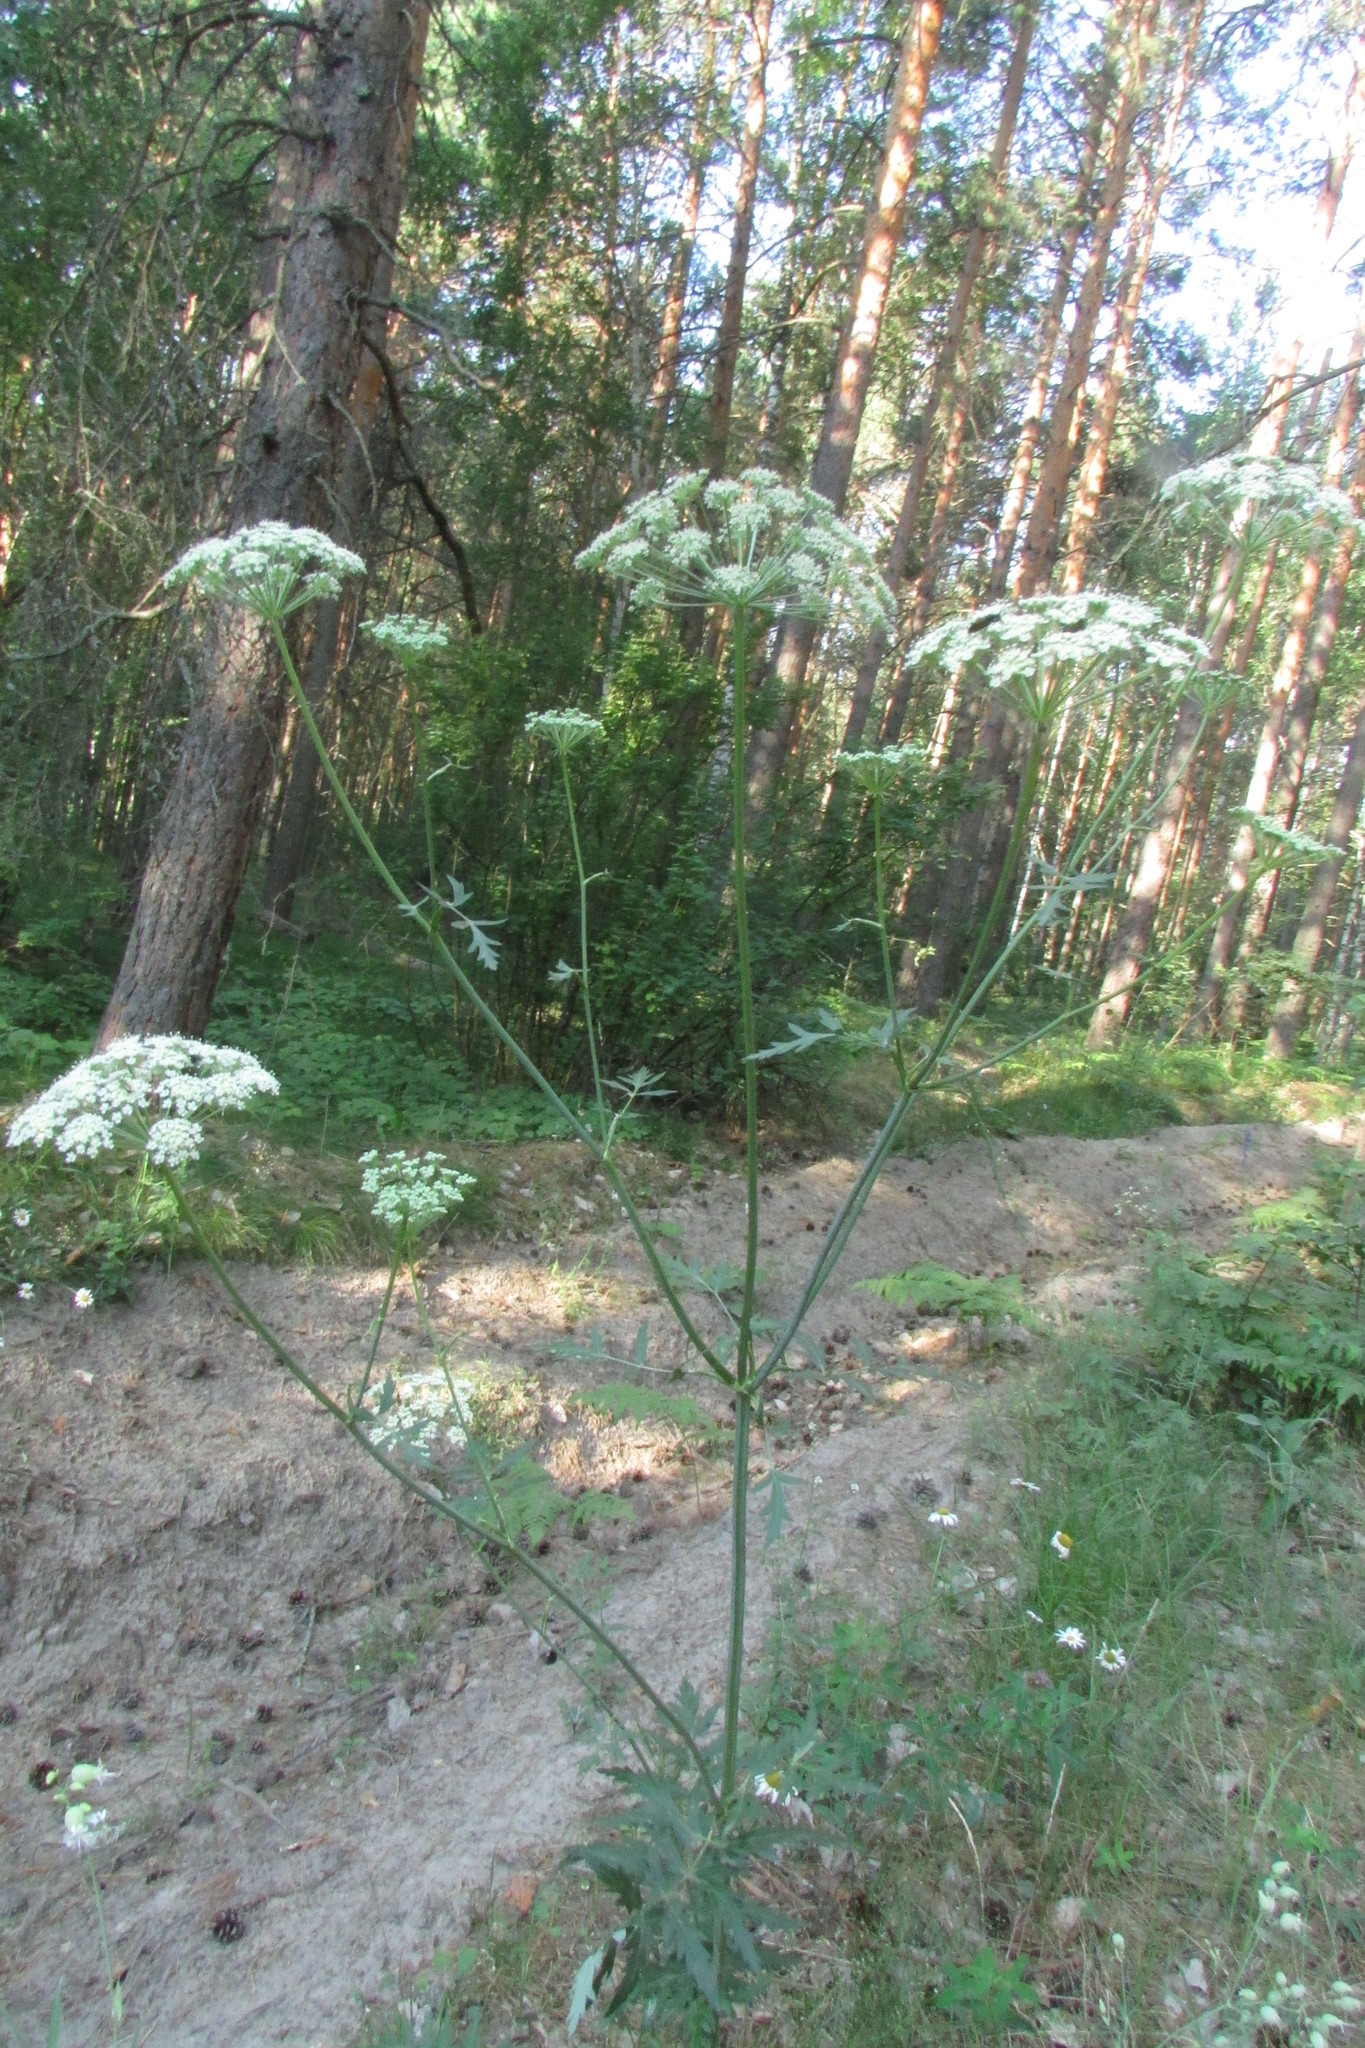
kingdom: Plantae
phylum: Tracheophyta
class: Magnoliopsida
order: Apiales
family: Apiaceae
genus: Seseli
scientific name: Seseli libanotis
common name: Mooncarrot
